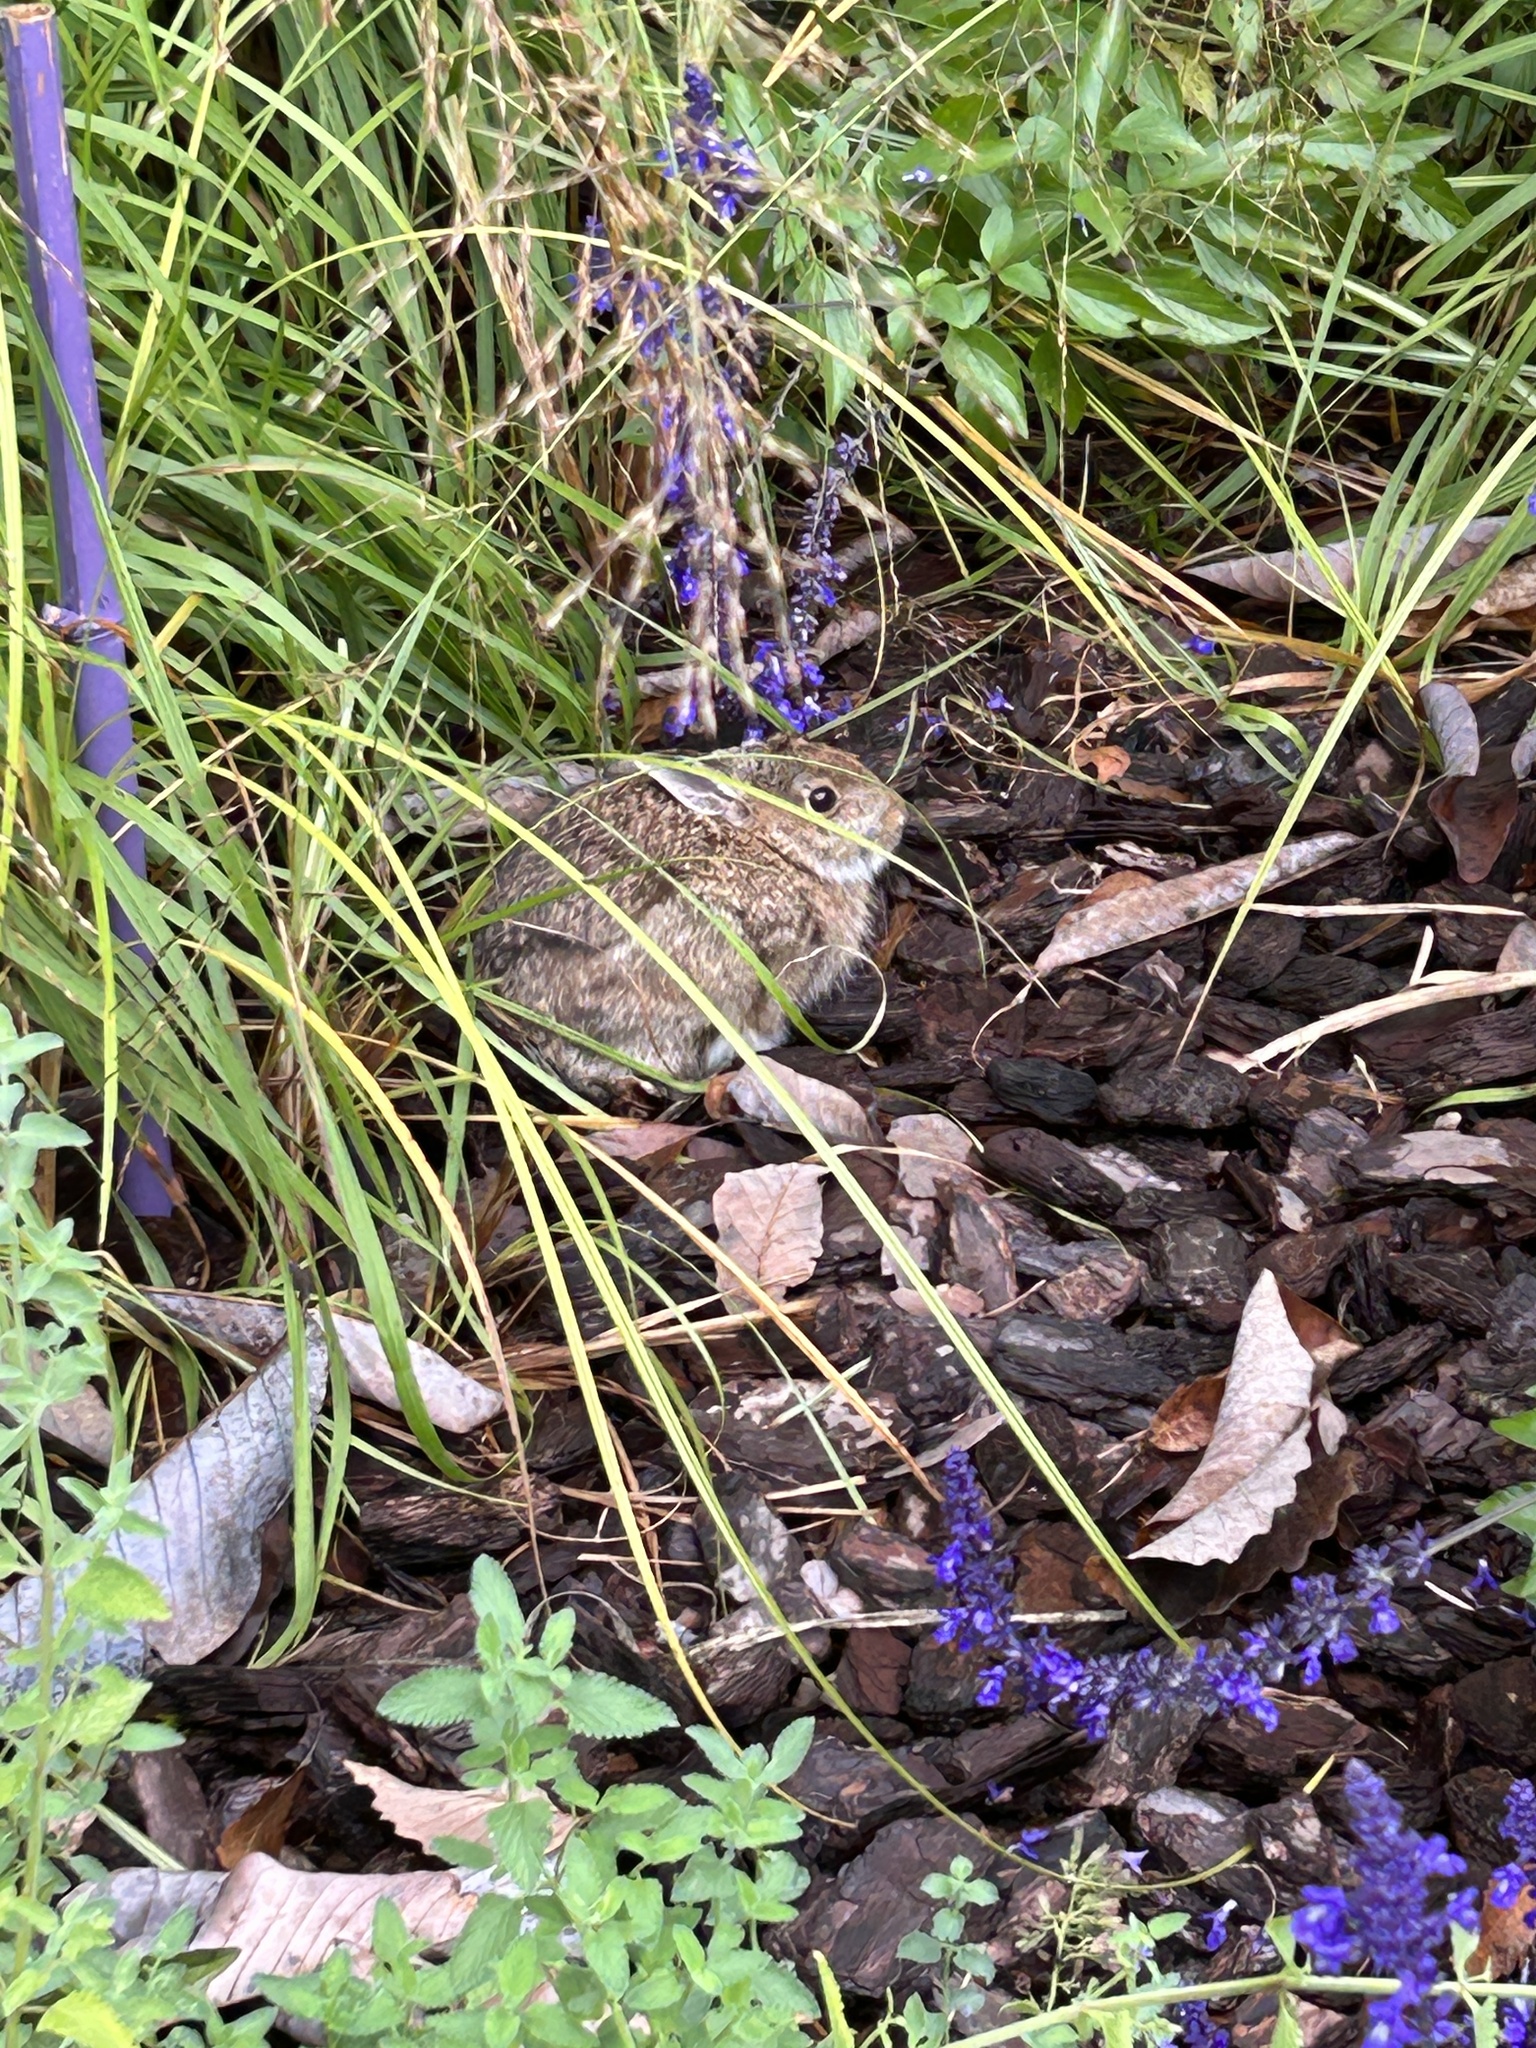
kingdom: Animalia
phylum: Chordata
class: Mammalia
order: Lagomorpha
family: Leporidae
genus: Sylvilagus
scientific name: Sylvilagus floridanus
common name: Eastern cottontail
